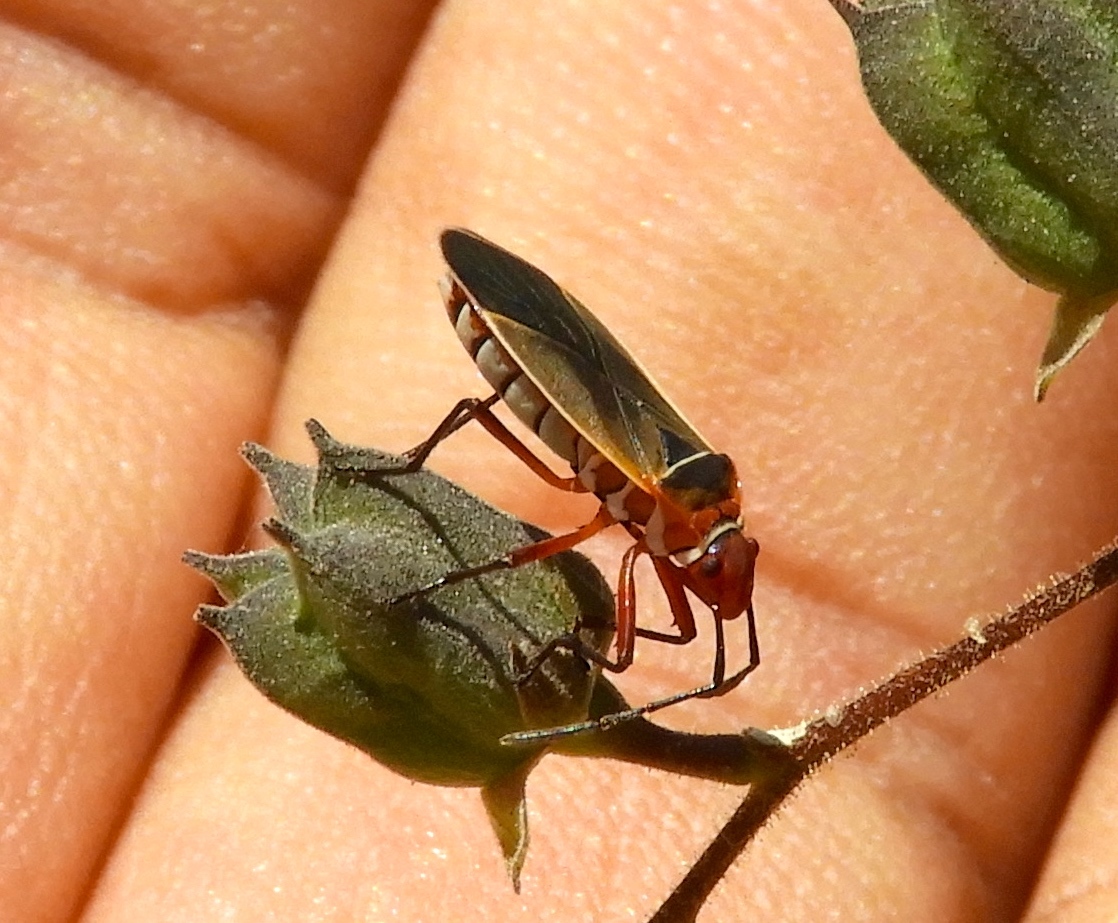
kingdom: Animalia
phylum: Arthropoda
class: Insecta
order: Hemiptera
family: Pyrrhocoridae
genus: Dysdercus
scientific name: Dysdercus
